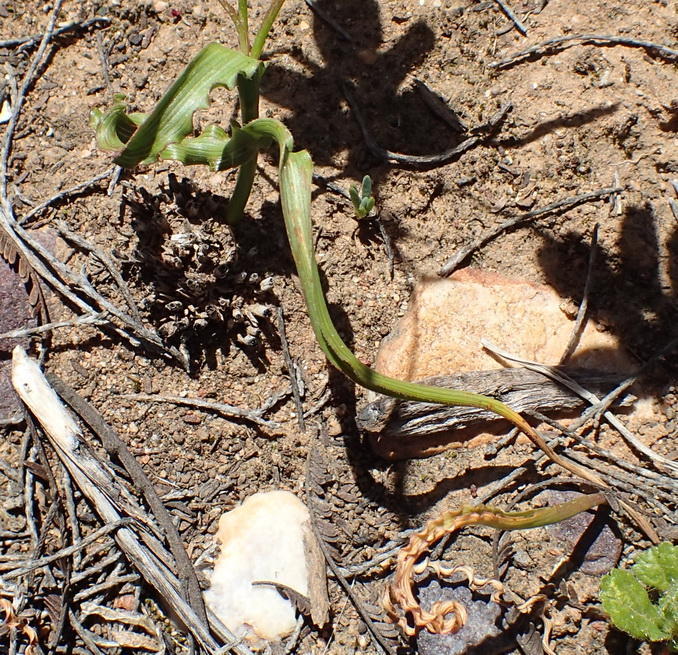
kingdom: Plantae
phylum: Tracheophyta
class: Liliopsida
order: Asparagales
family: Iridaceae
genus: Moraea
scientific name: Moraea gawleri
